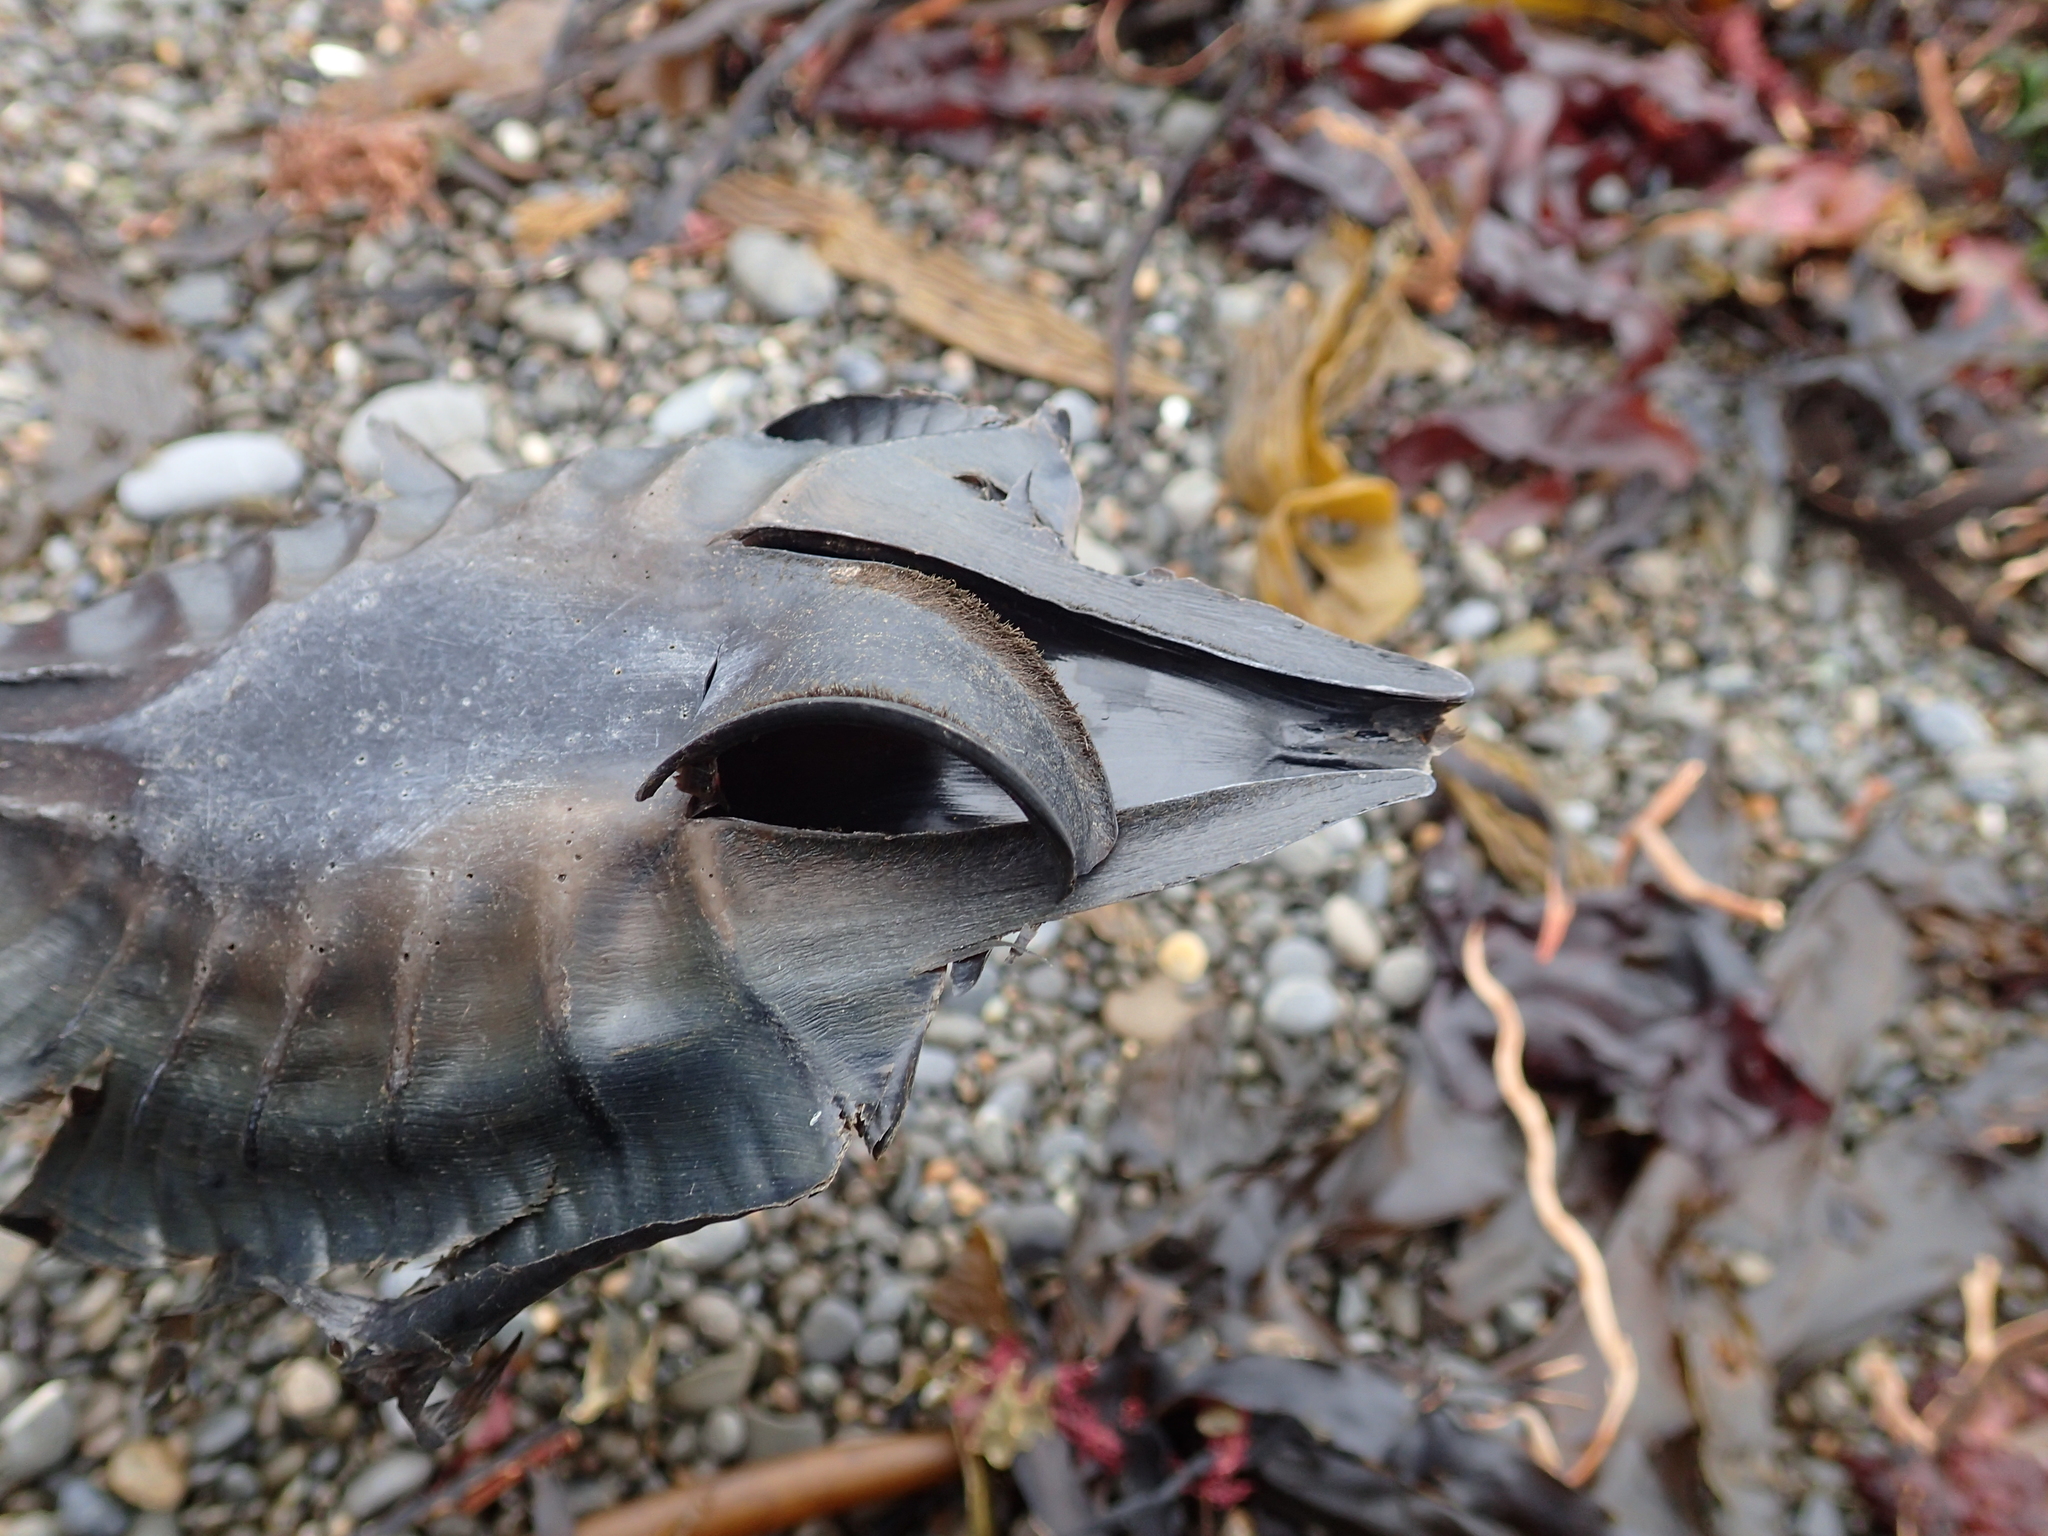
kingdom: Animalia
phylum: Chordata
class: Holocephali
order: Chimaeriformes
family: Callorhinchidae
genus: Callorhinchus
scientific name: Callorhinchus milii
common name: Elephant fish
